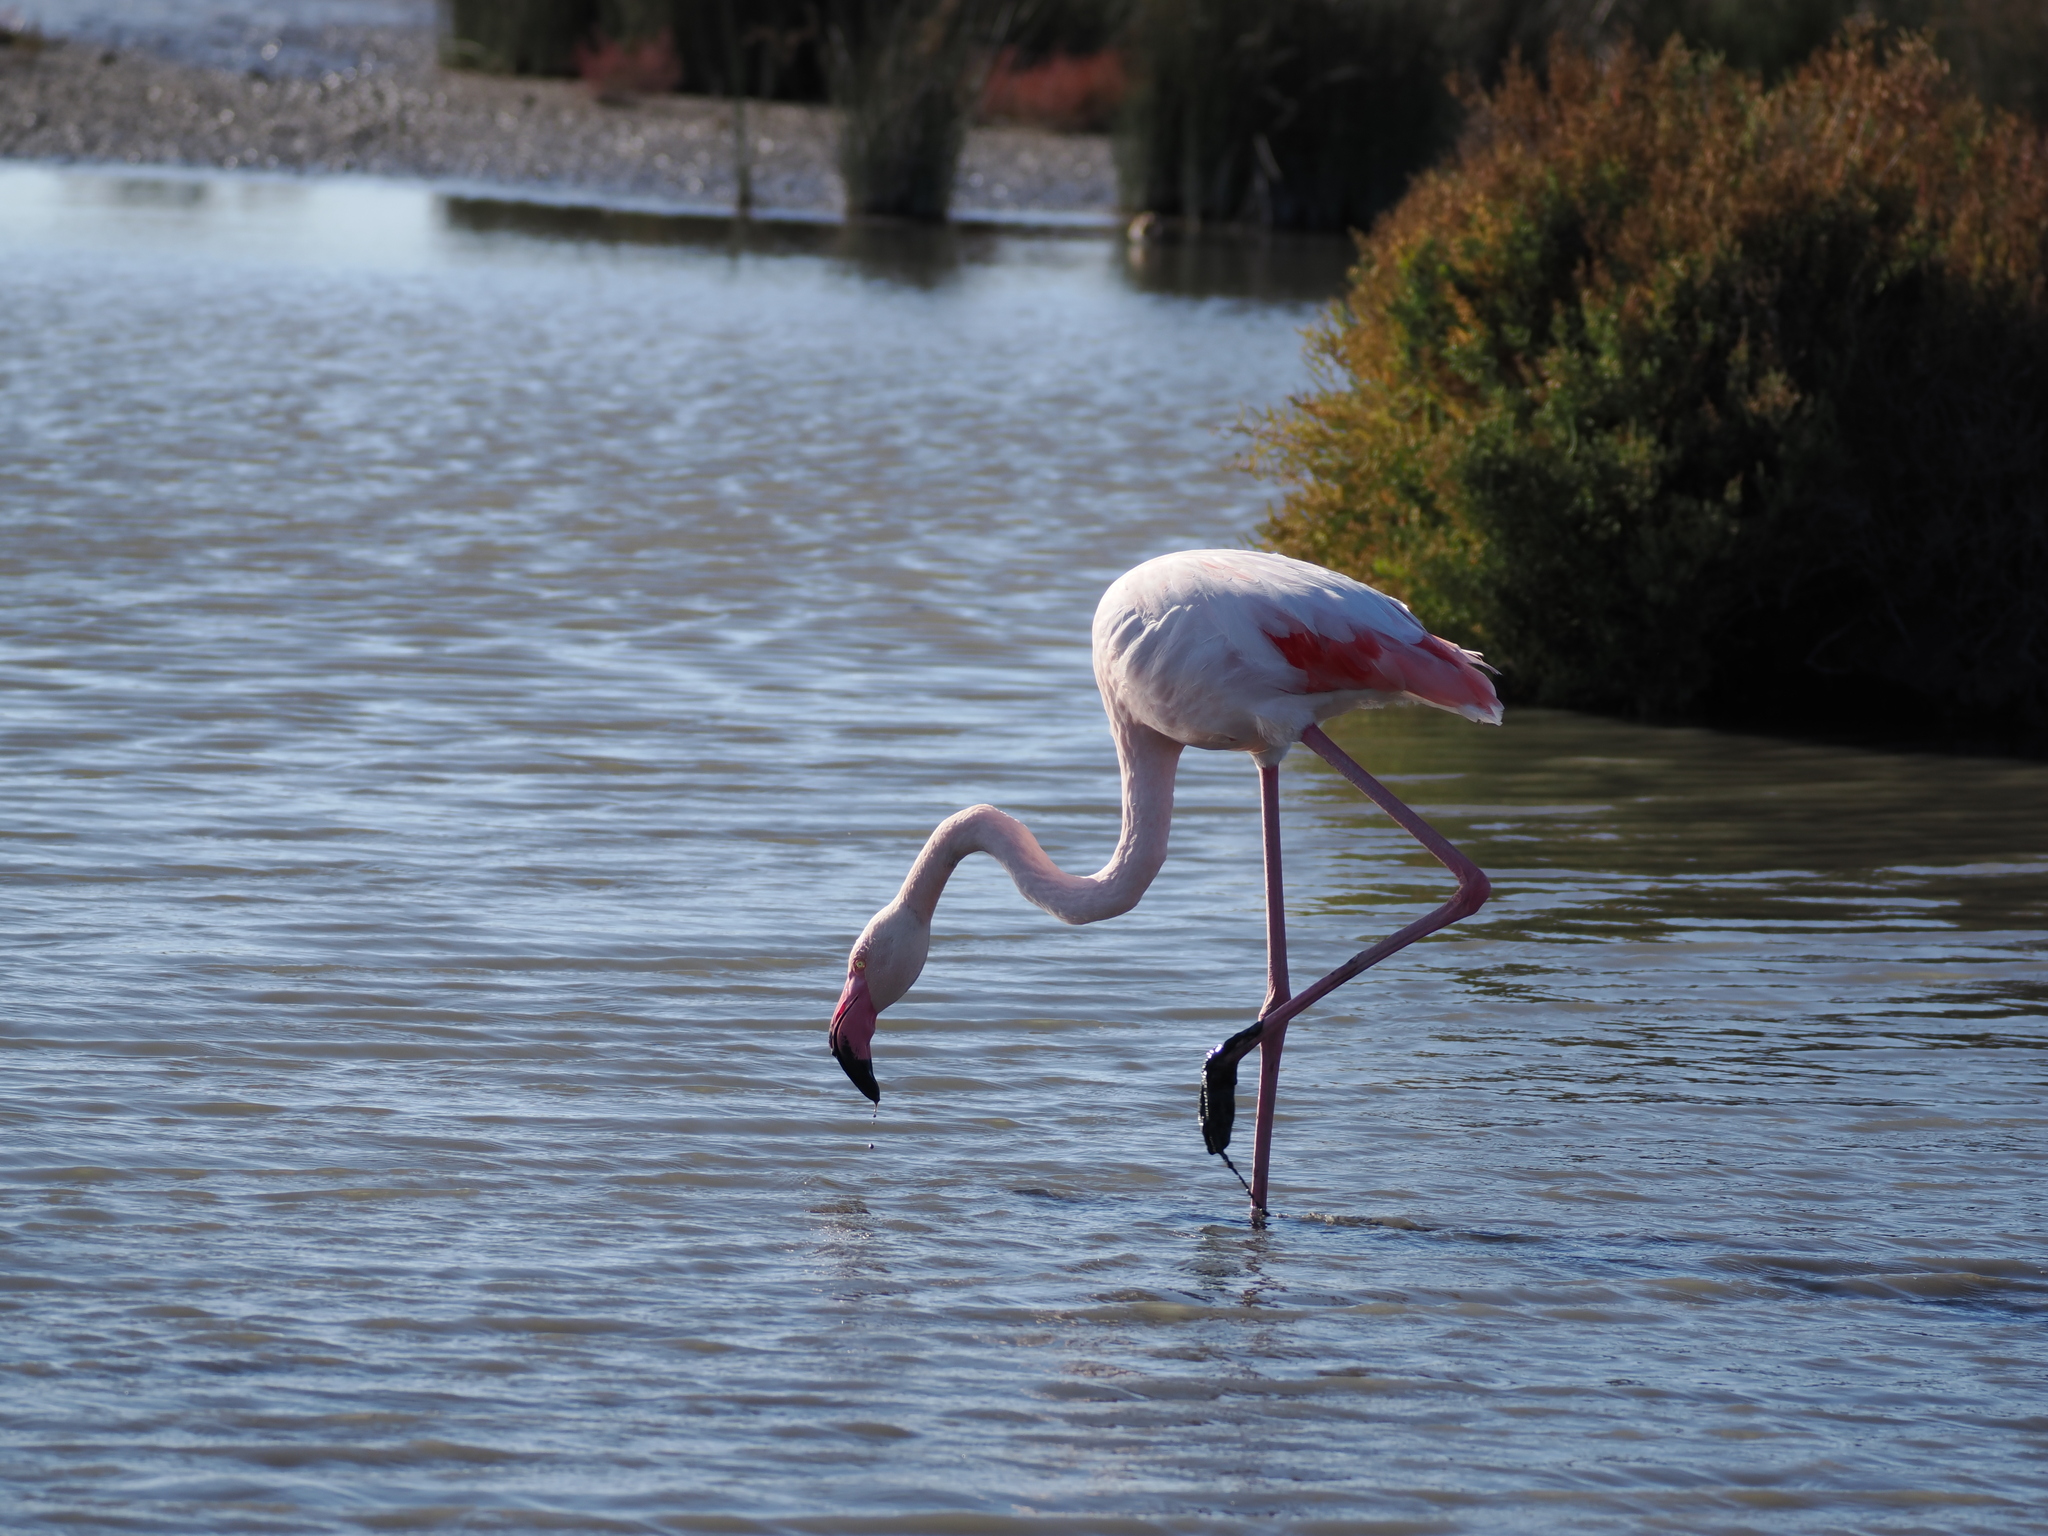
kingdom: Animalia
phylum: Chordata
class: Aves
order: Phoenicopteriformes
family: Phoenicopteridae
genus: Phoenicopterus
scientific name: Phoenicopterus roseus
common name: Greater flamingo
